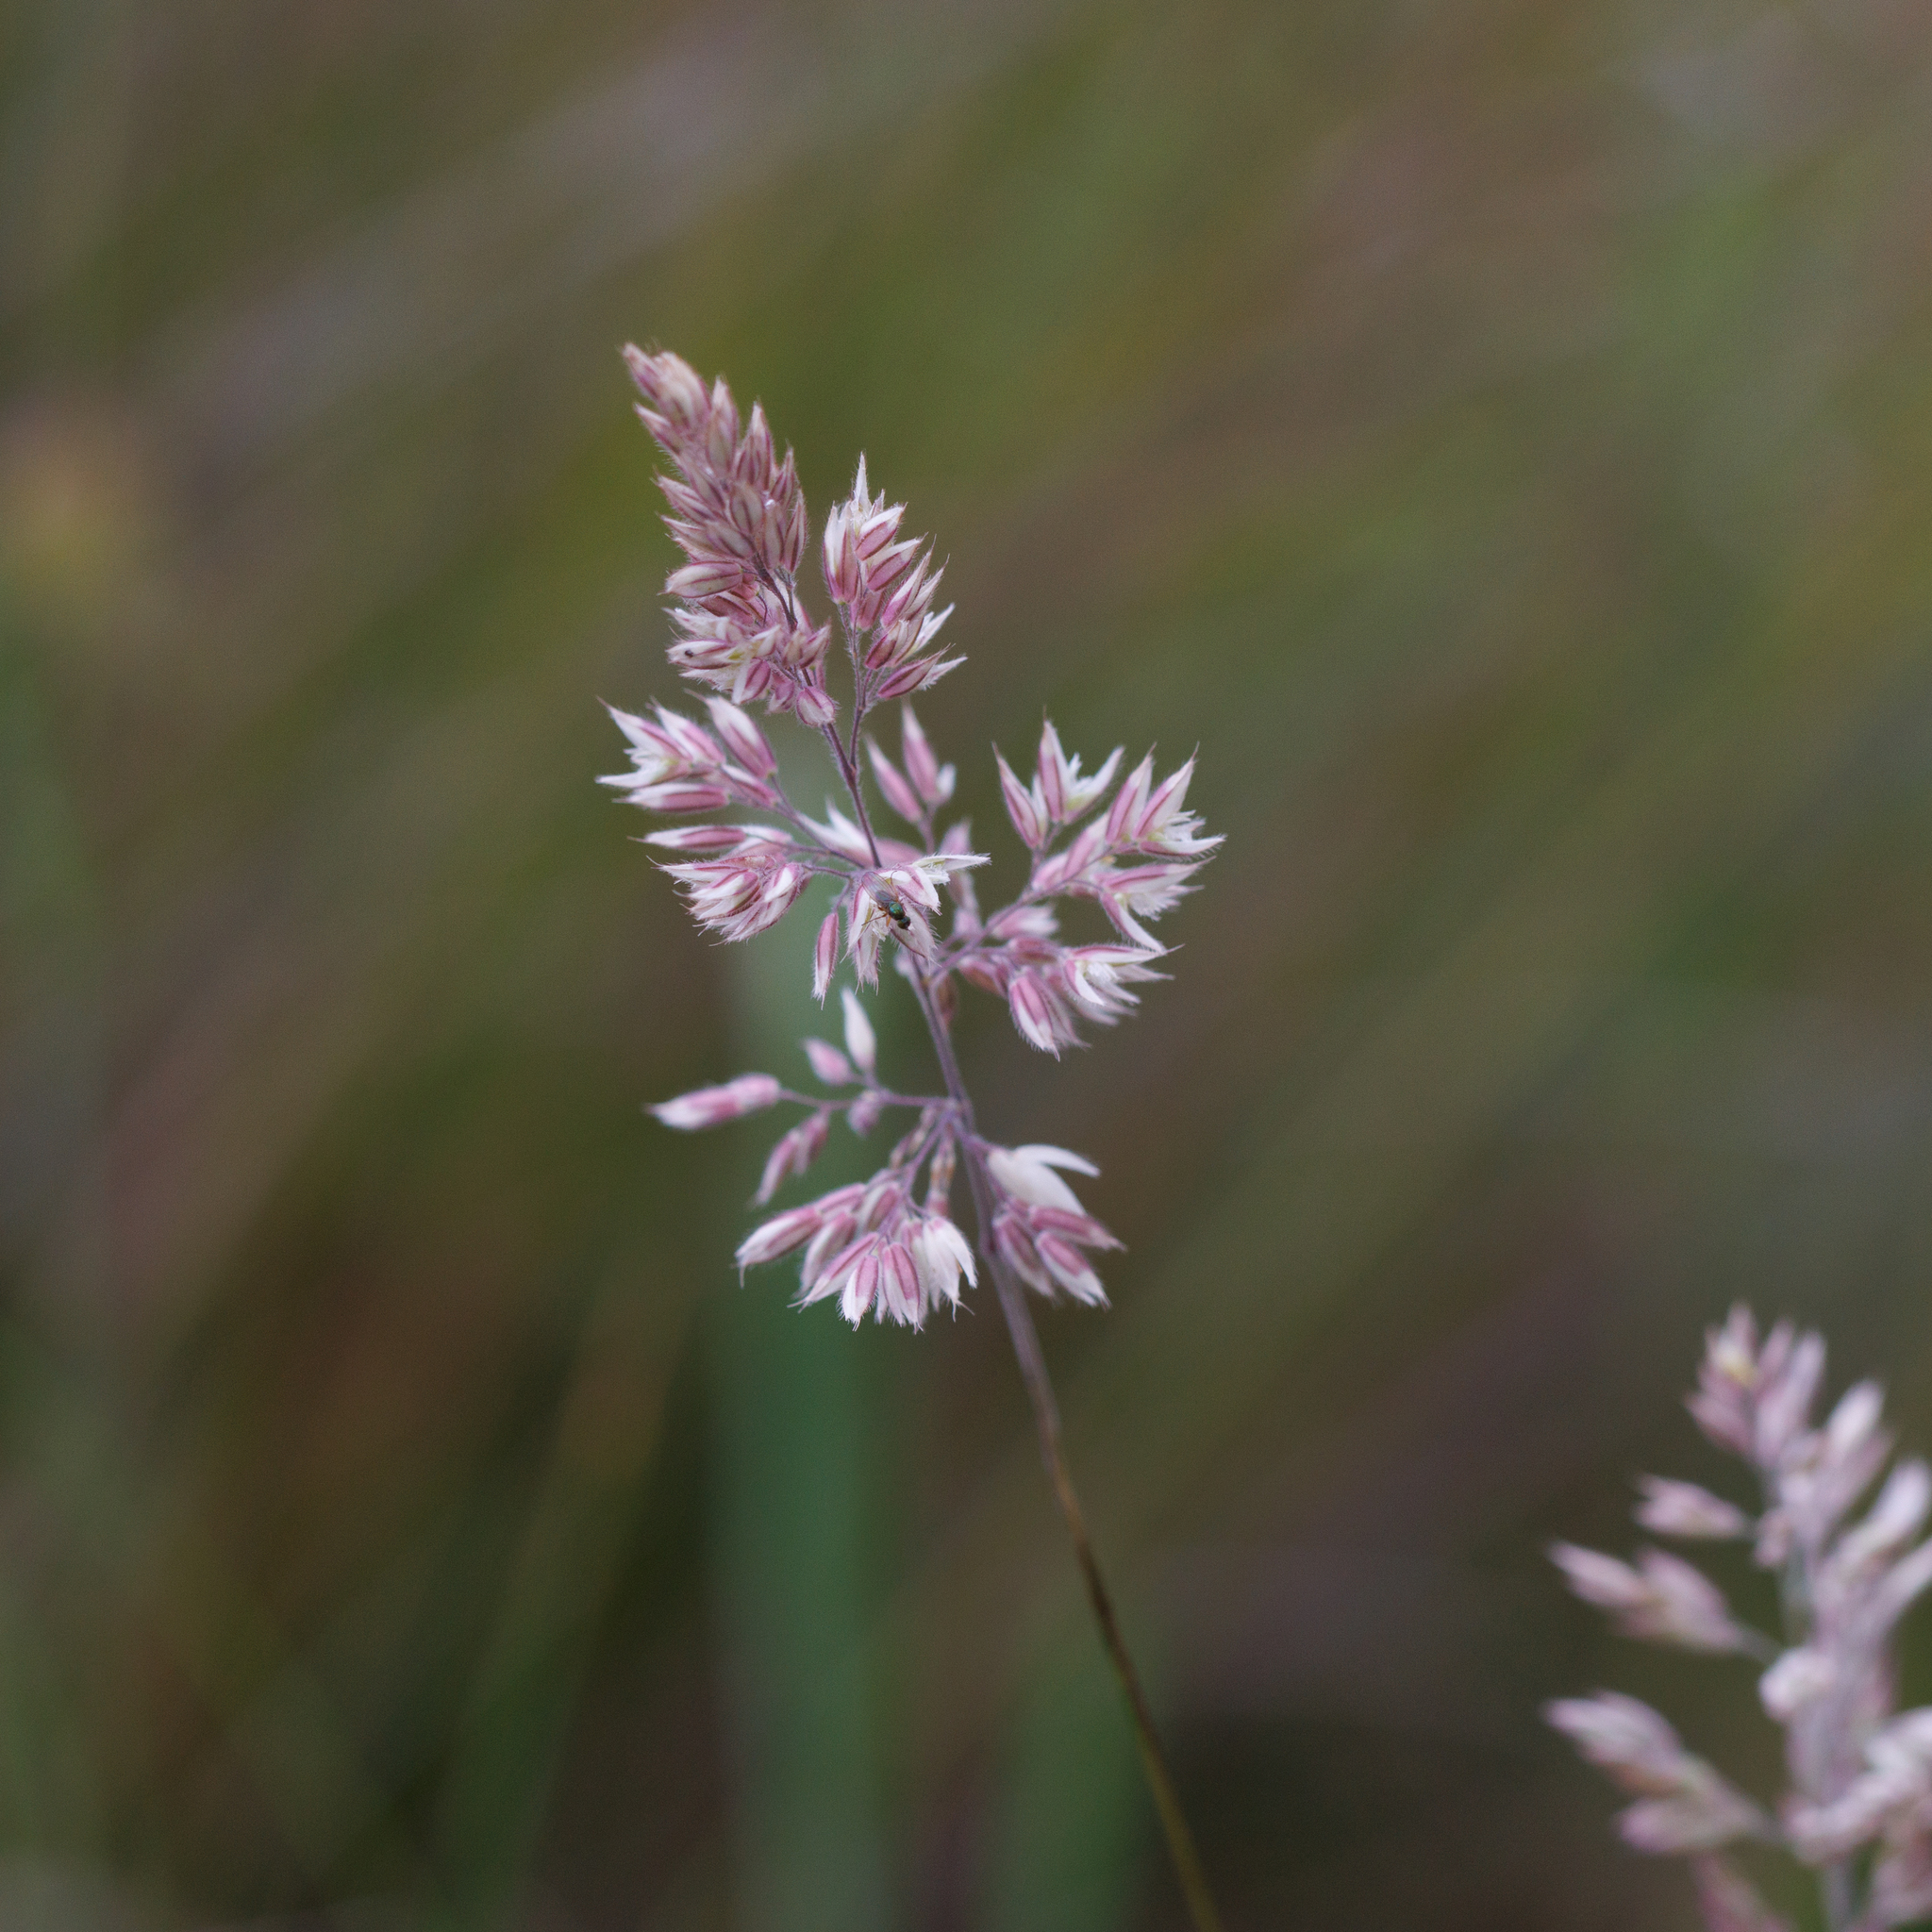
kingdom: Plantae
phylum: Tracheophyta
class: Liliopsida
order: Poales
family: Poaceae
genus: Holcus
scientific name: Holcus lanatus
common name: Yorkshire-fog
